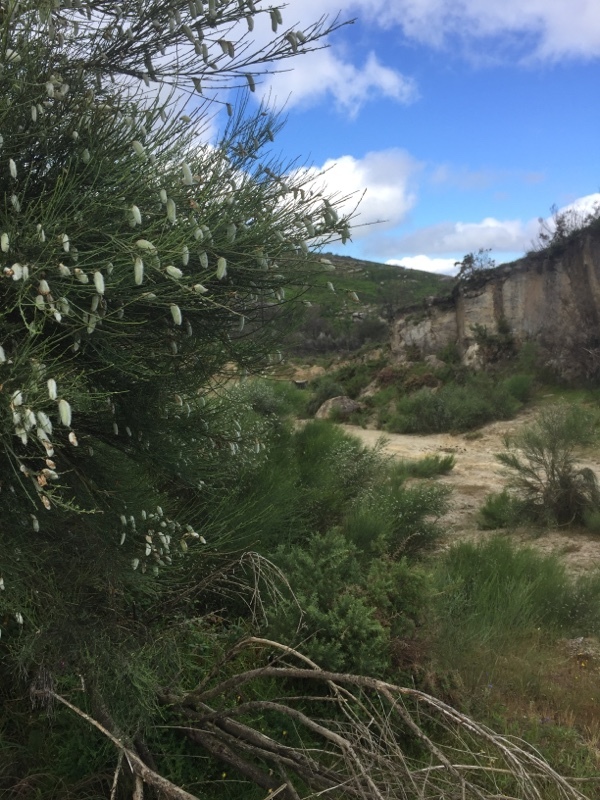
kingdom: Plantae
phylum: Tracheophyta
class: Magnoliopsida
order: Fabales
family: Fabaceae
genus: Cytisus
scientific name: Cytisus striatus
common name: Hairy-fruited broom
